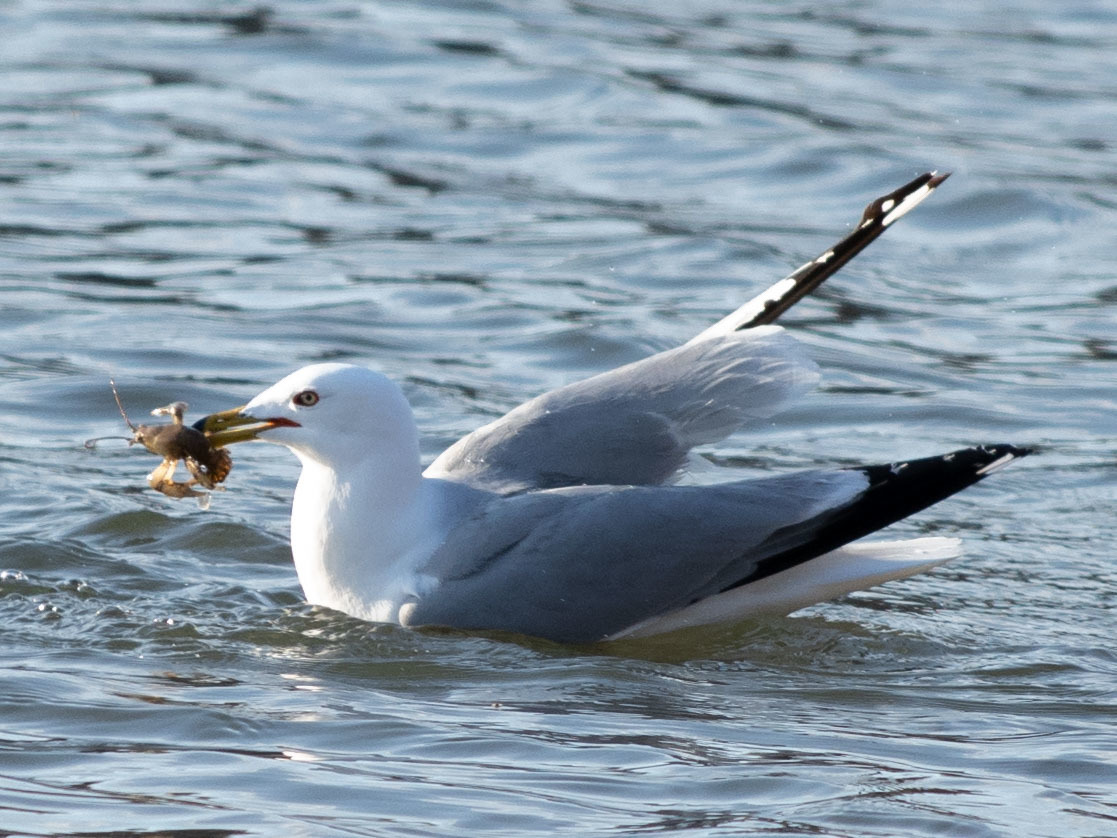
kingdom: Animalia
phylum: Chordata
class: Aves
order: Charadriiformes
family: Laridae
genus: Larus
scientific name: Larus delawarensis
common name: Ring-billed gull
